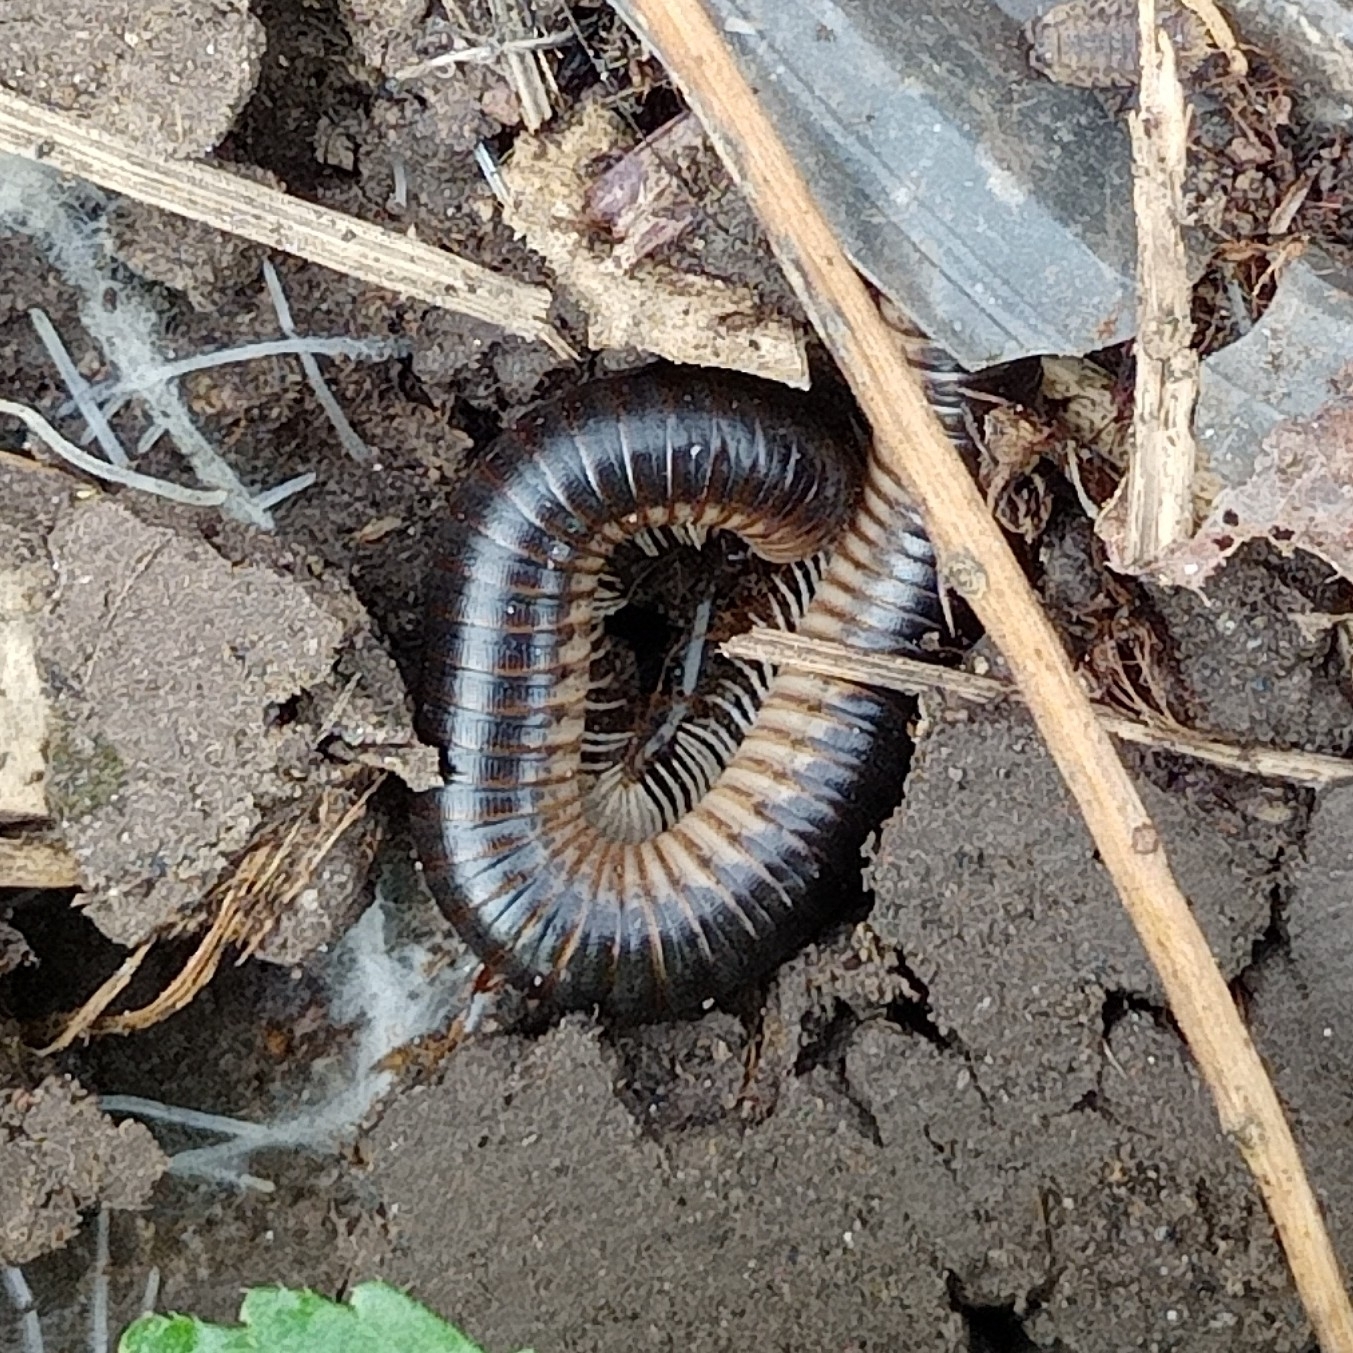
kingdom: Animalia
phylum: Arthropoda
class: Diplopoda
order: Julida
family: Julidae
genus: Pachyiulus
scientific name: Pachyiulus flavipes
